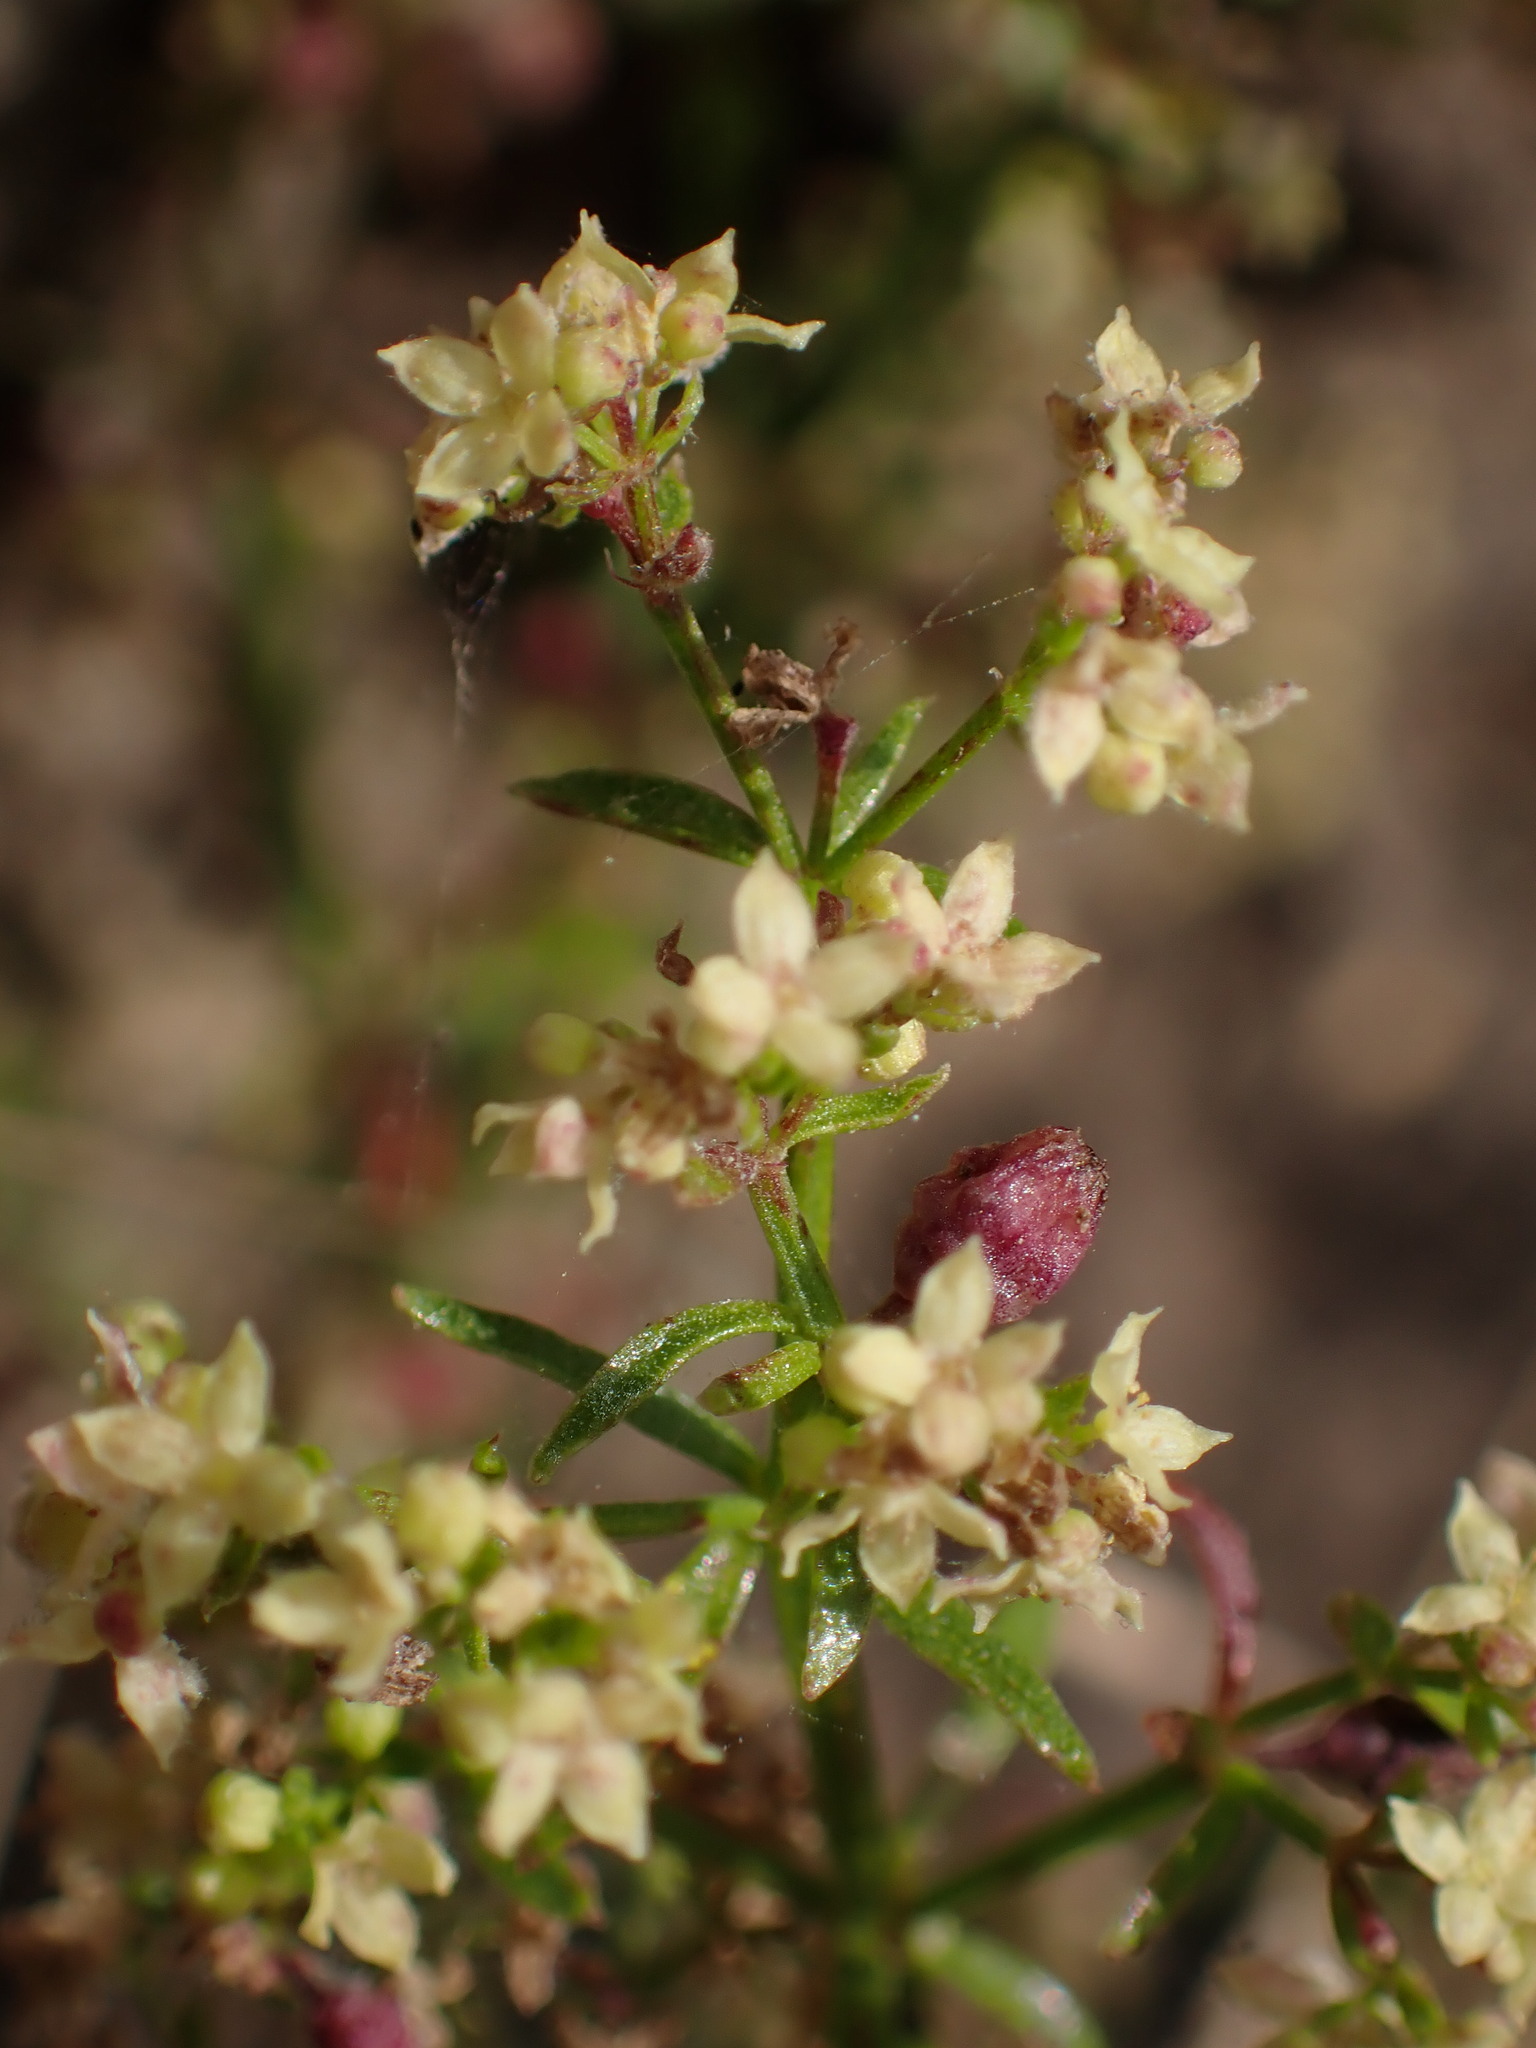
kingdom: Plantae
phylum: Tracheophyta
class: Magnoliopsida
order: Gentianales
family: Rubiaceae
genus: Galium
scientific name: Galium angustifolium
